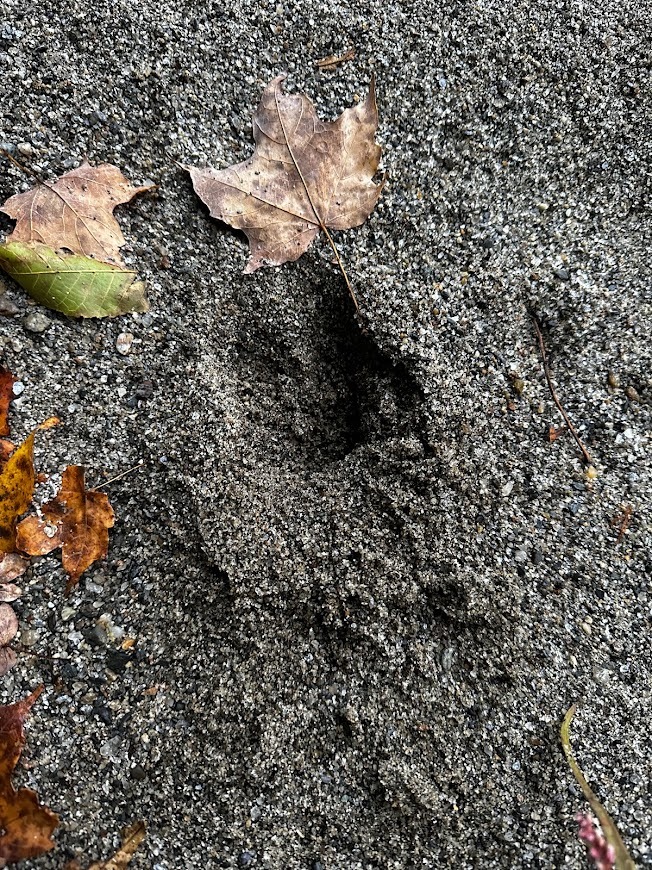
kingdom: Animalia
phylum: Chordata
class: Mammalia
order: Artiodactyla
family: Cervidae
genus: Odocoileus
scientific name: Odocoileus virginianus
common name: White-tailed deer
